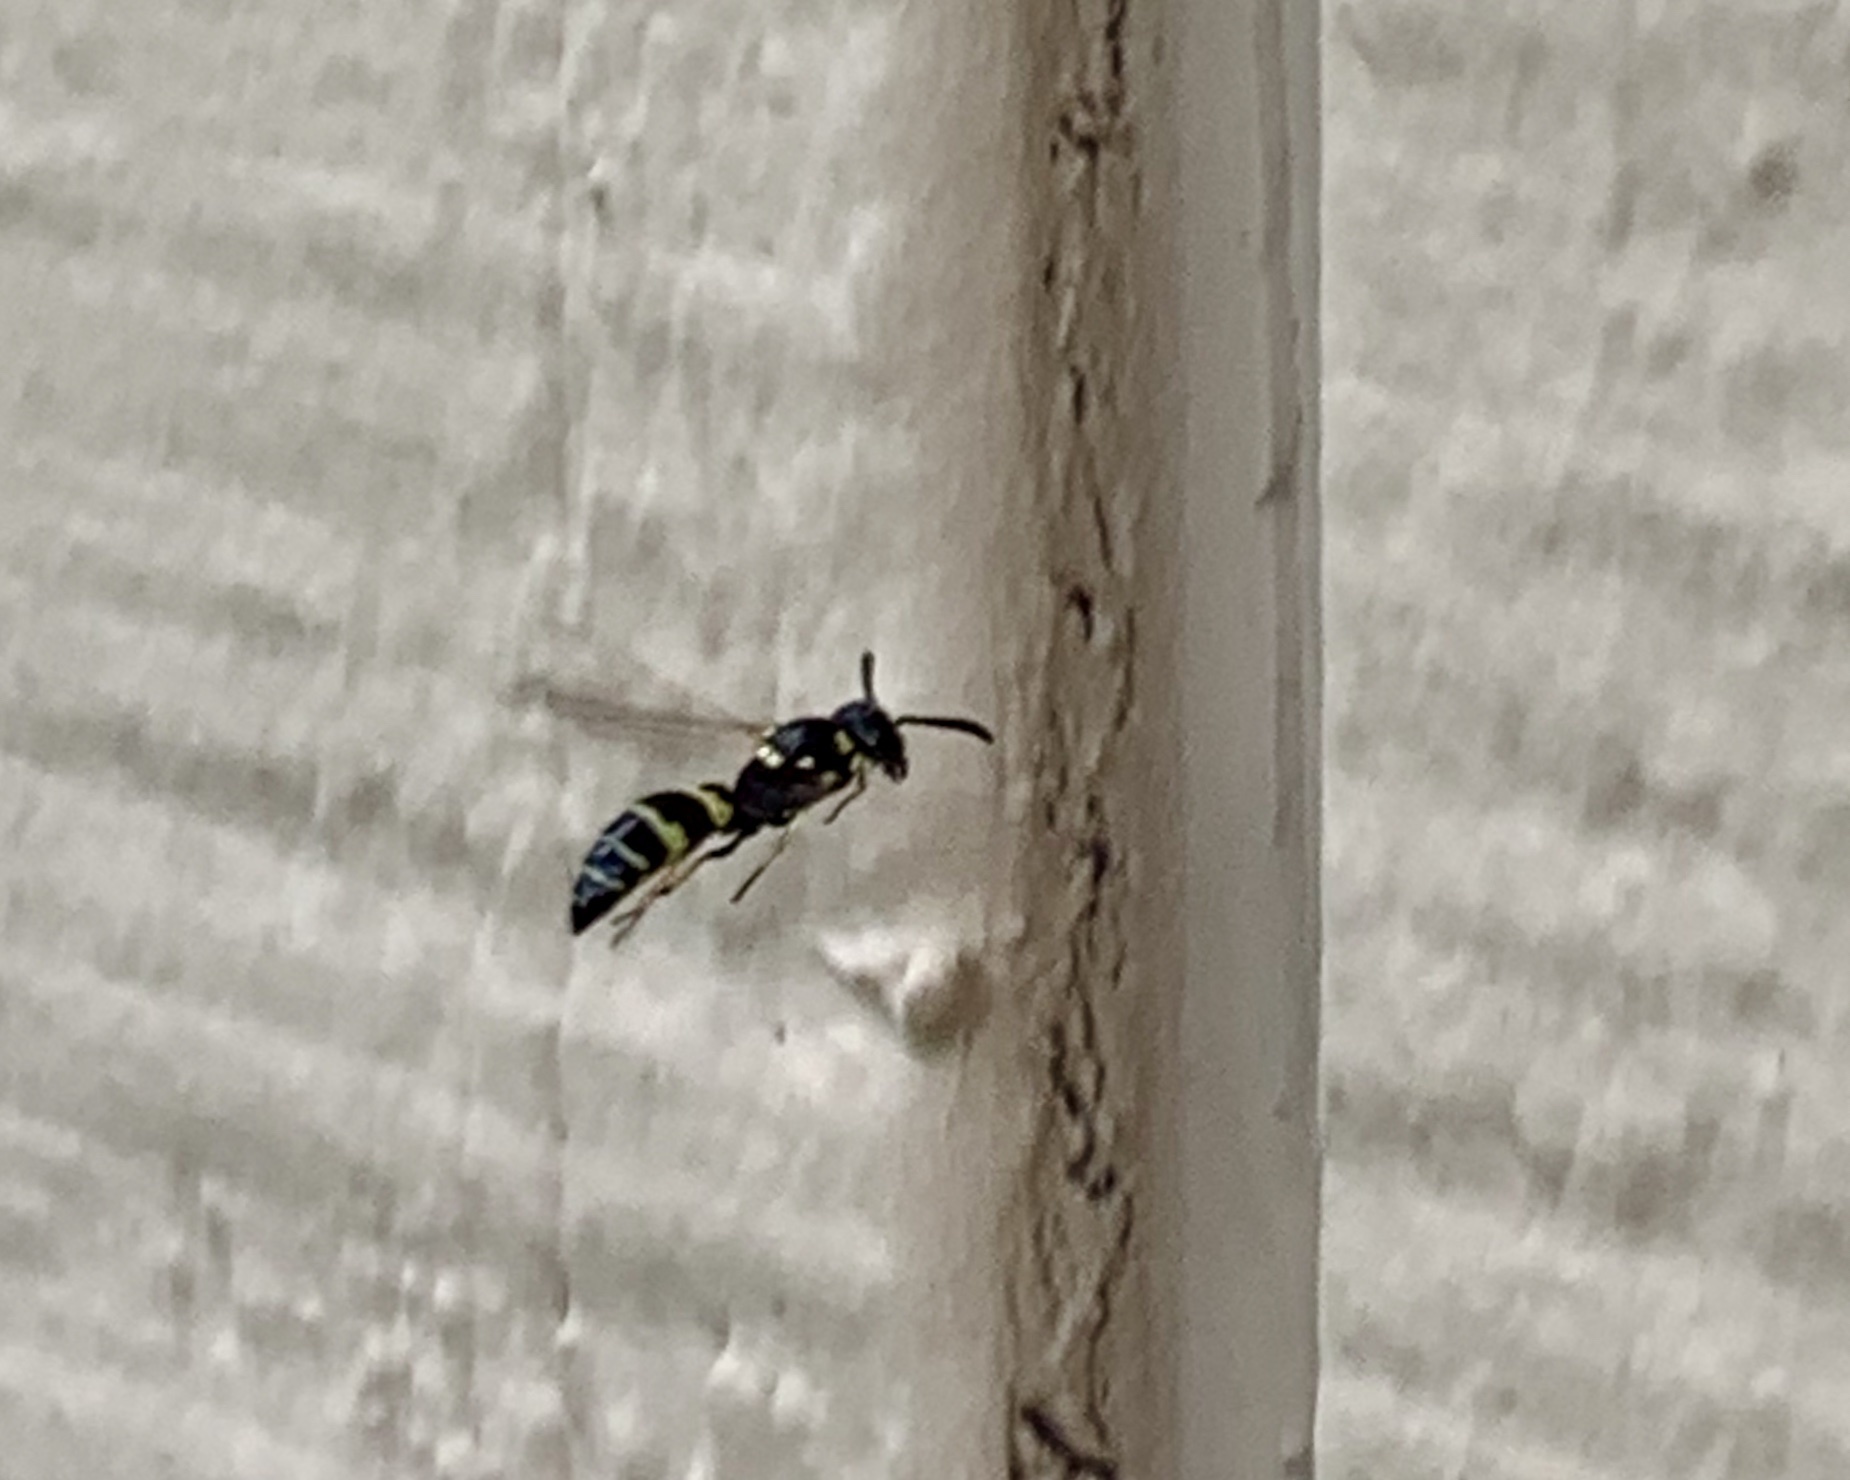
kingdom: Animalia
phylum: Arthropoda
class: Insecta
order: Hymenoptera
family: Eumenidae
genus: Symmorphus
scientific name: Symmorphus
